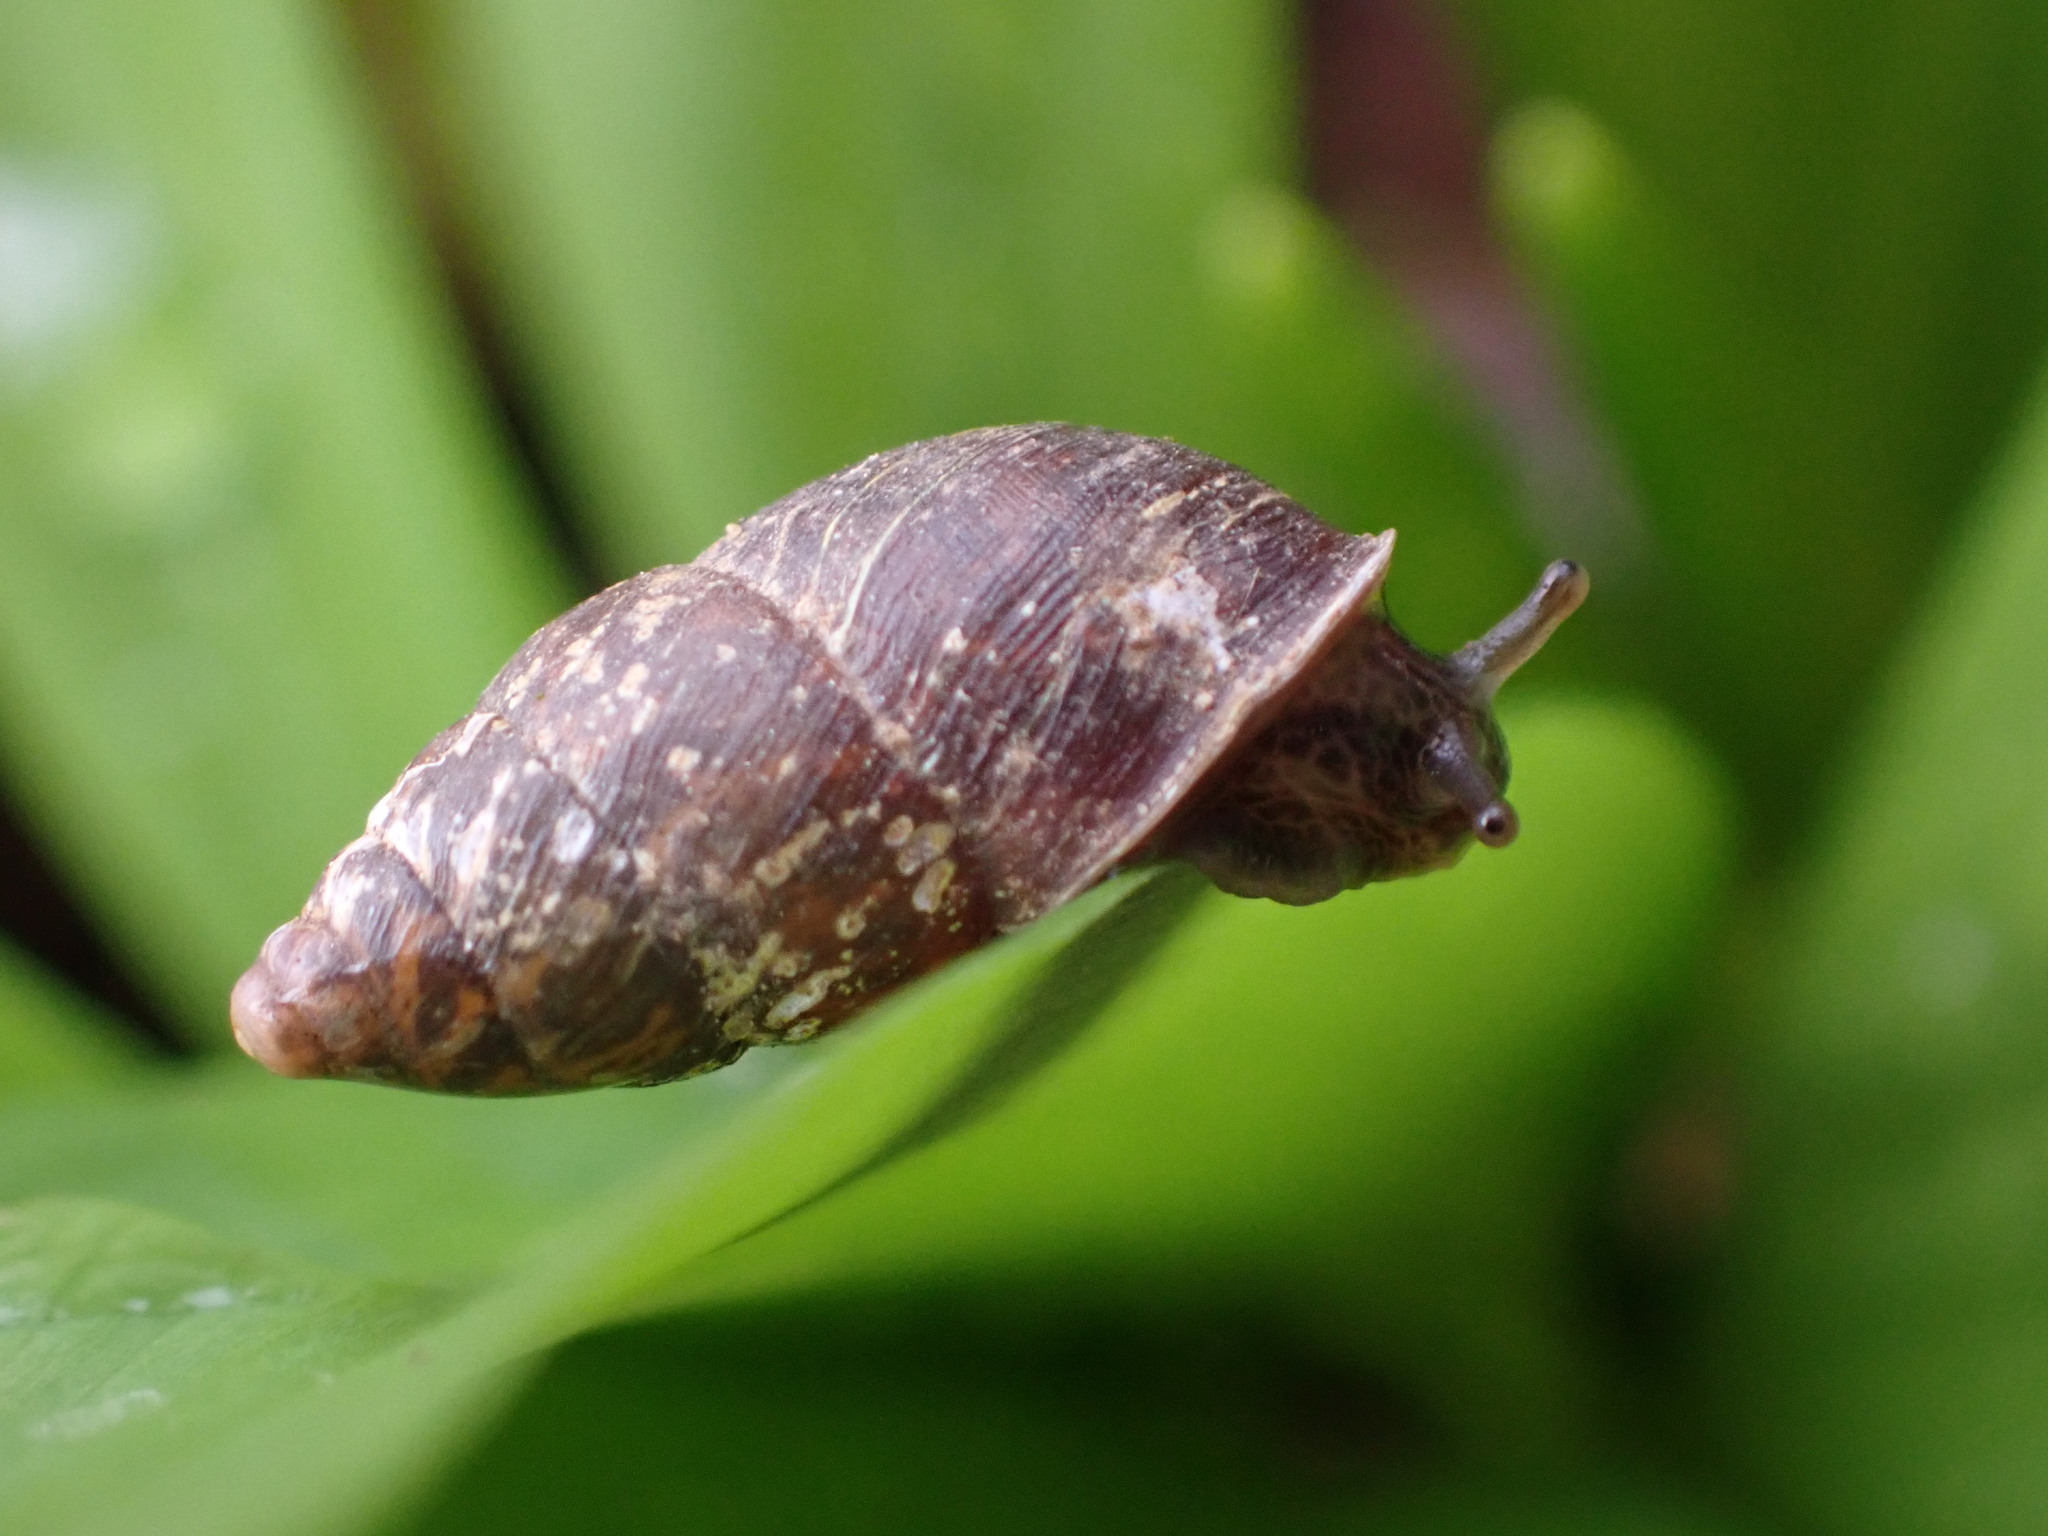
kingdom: Animalia
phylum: Mollusca
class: Gastropoda
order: Stylommatophora
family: Enidae
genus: Merdigera
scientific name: Merdigera obscura
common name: Lesser bulin
